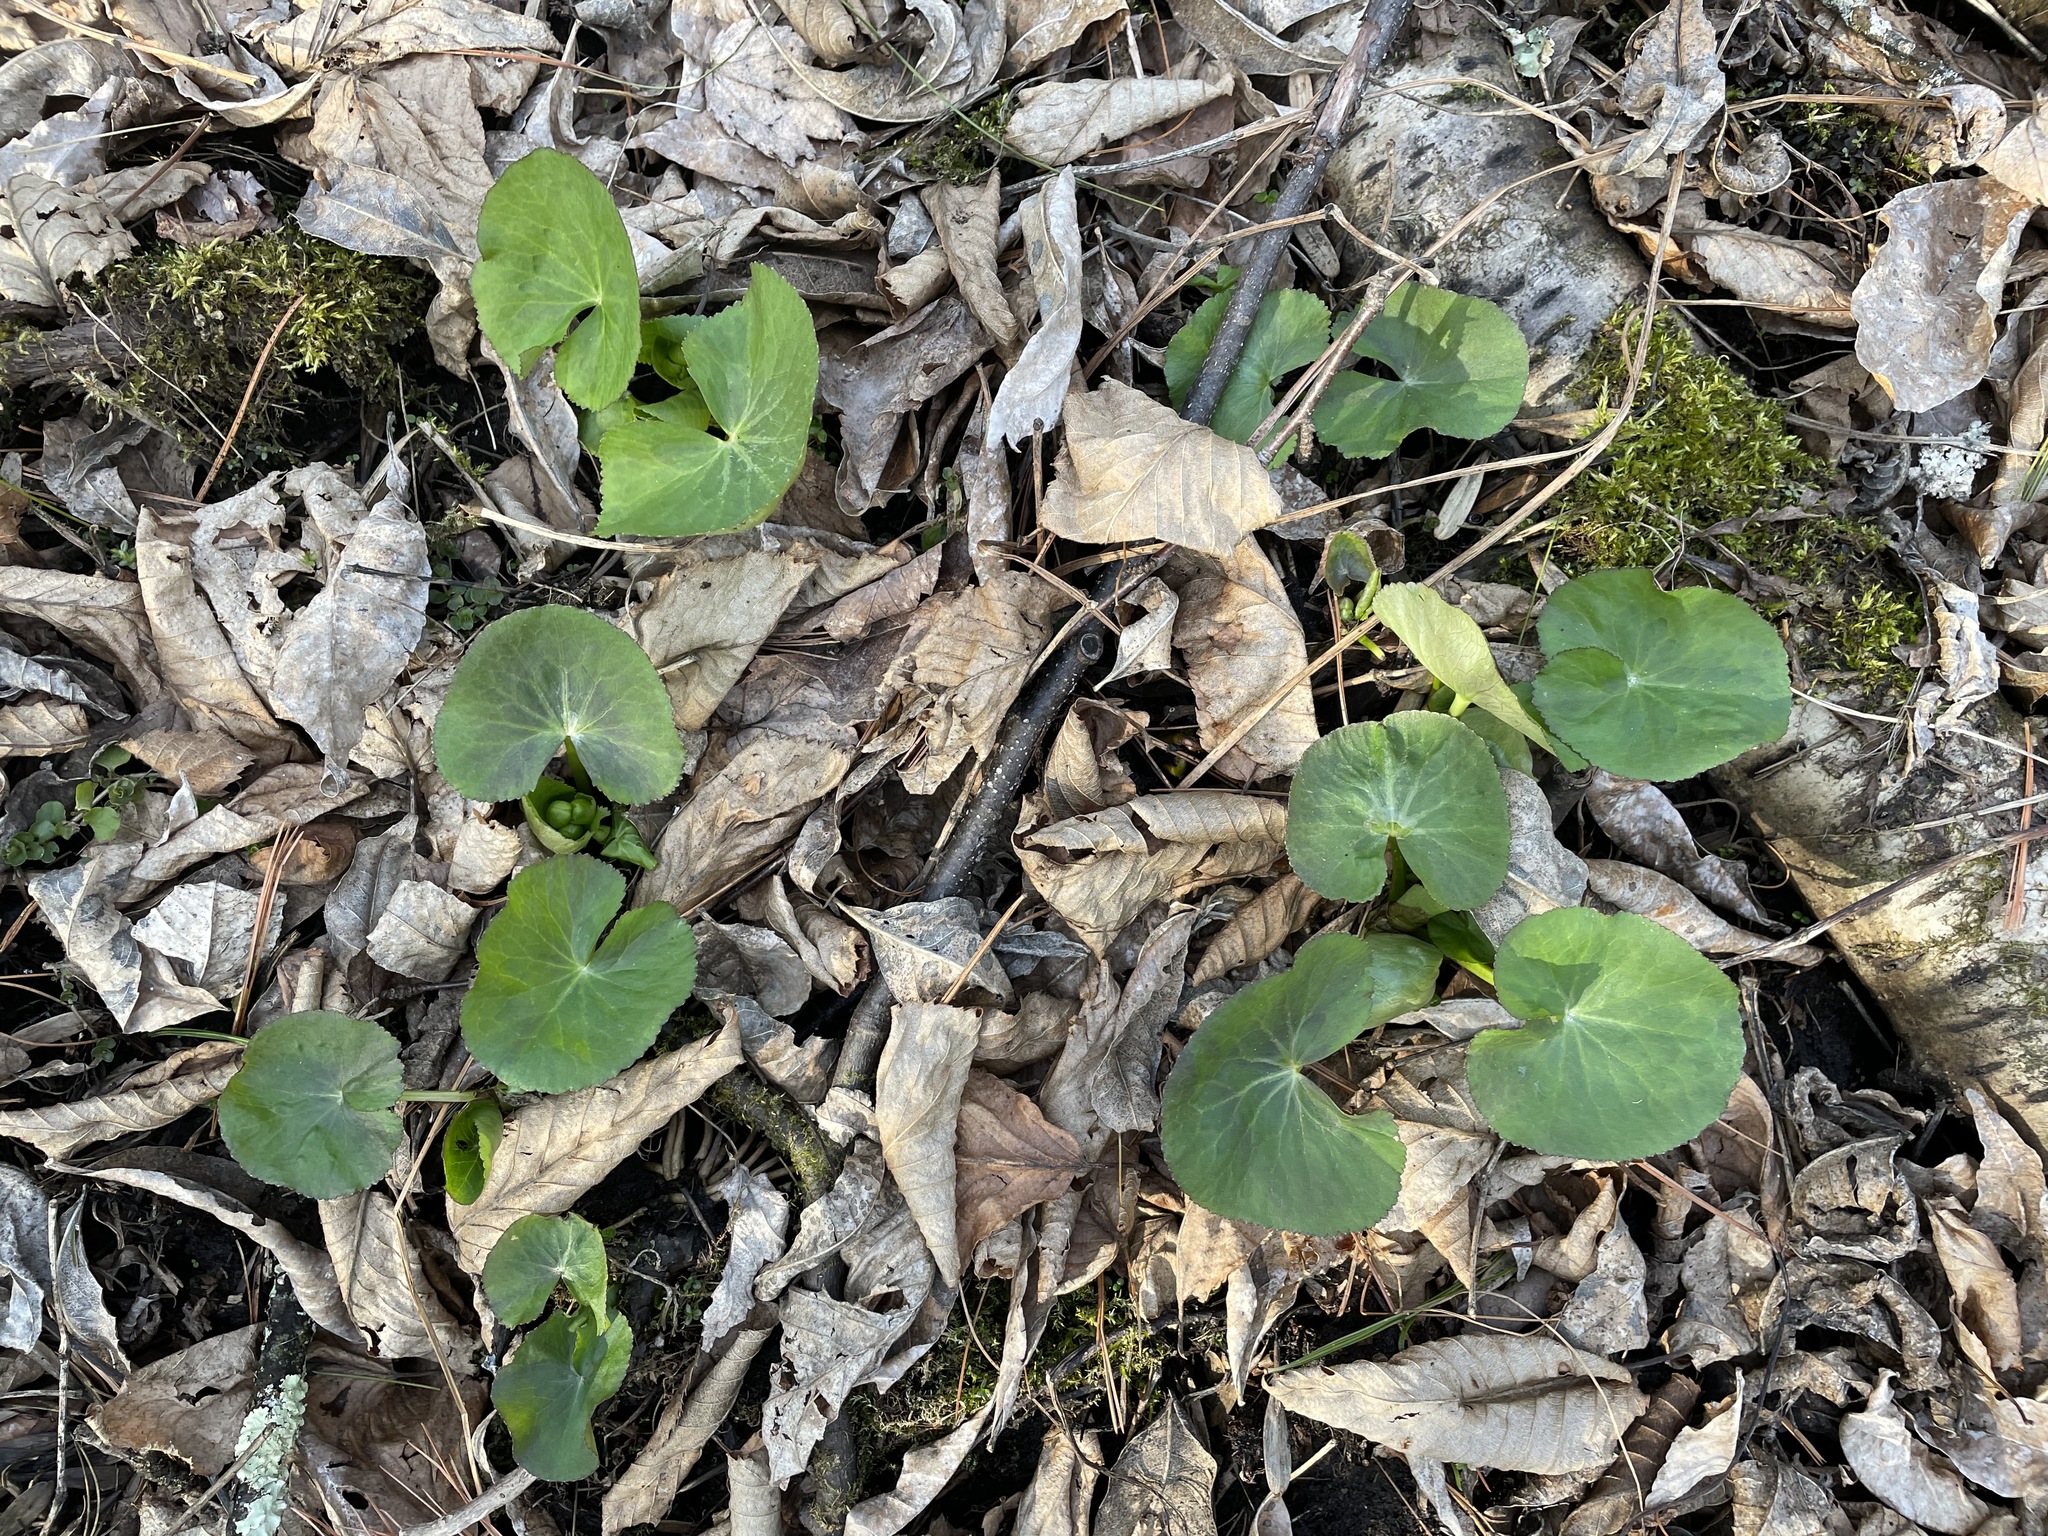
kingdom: Plantae
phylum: Tracheophyta
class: Magnoliopsida
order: Ranunculales
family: Ranunculaceae
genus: Caltha
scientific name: Caltha palustris
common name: Marsh marigold
